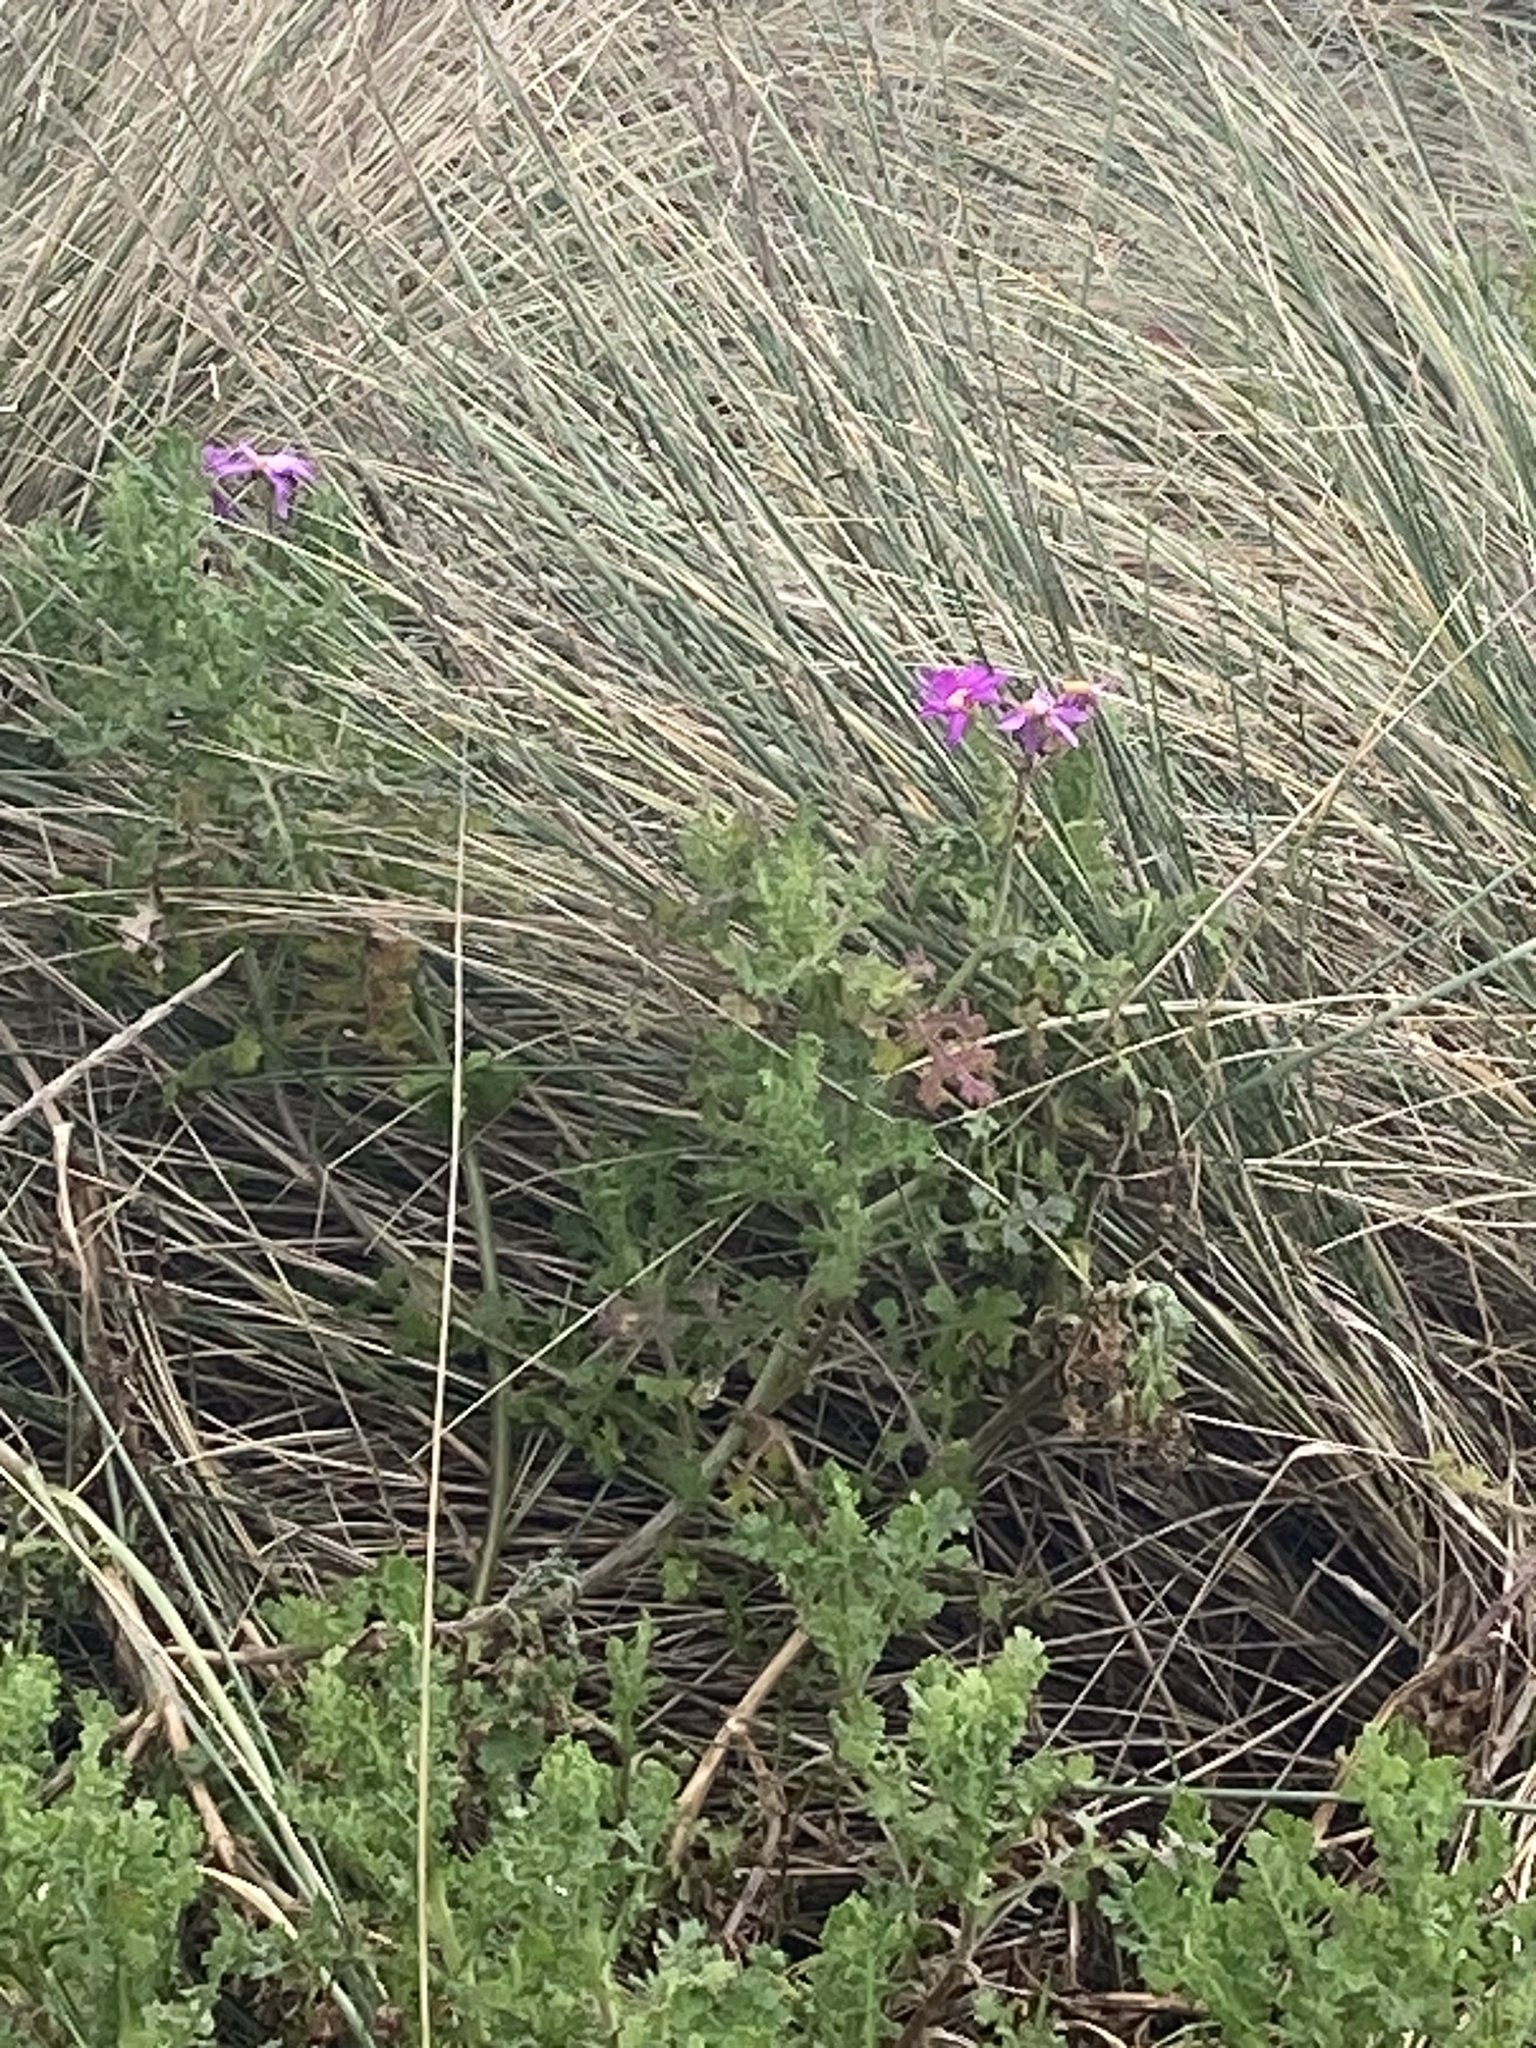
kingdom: Plantae
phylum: Tracheophyta
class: Magnoliopsida
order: Asterales
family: Asteraceae
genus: Senecio
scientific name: Senecio elegans
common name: Purple groundsel
